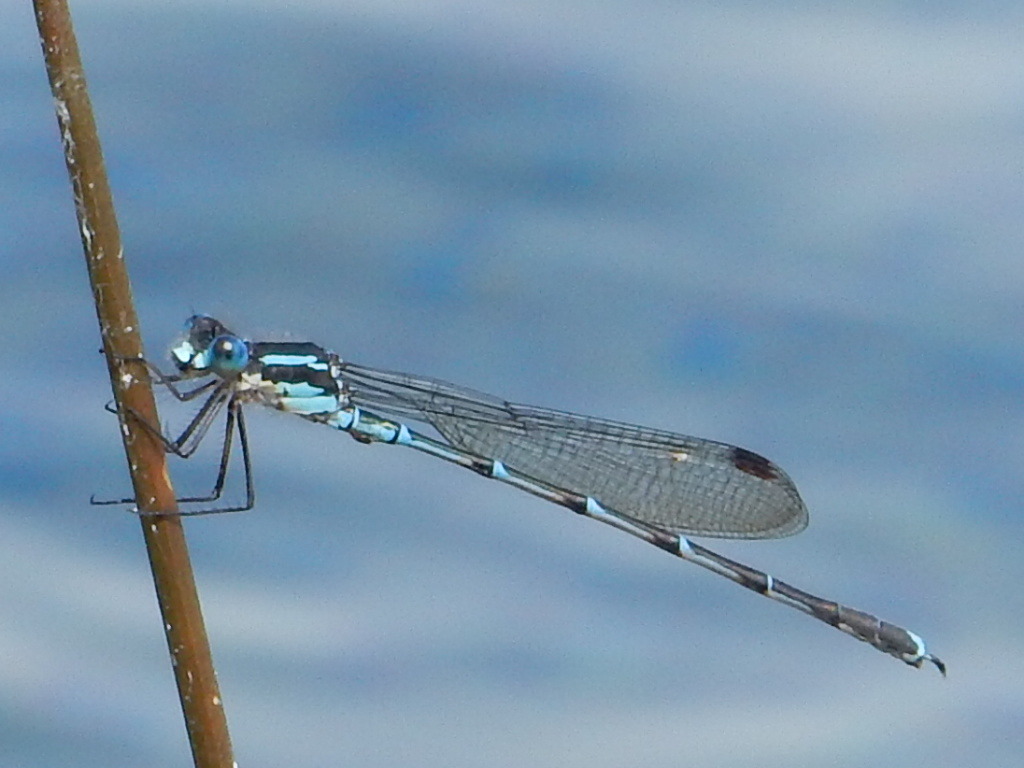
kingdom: Animalia
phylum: Arthropoda
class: Insecta
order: Odonata
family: Lestidae
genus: Austrolestes
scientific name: Austrolestes colensonis
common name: Blue damselfly
